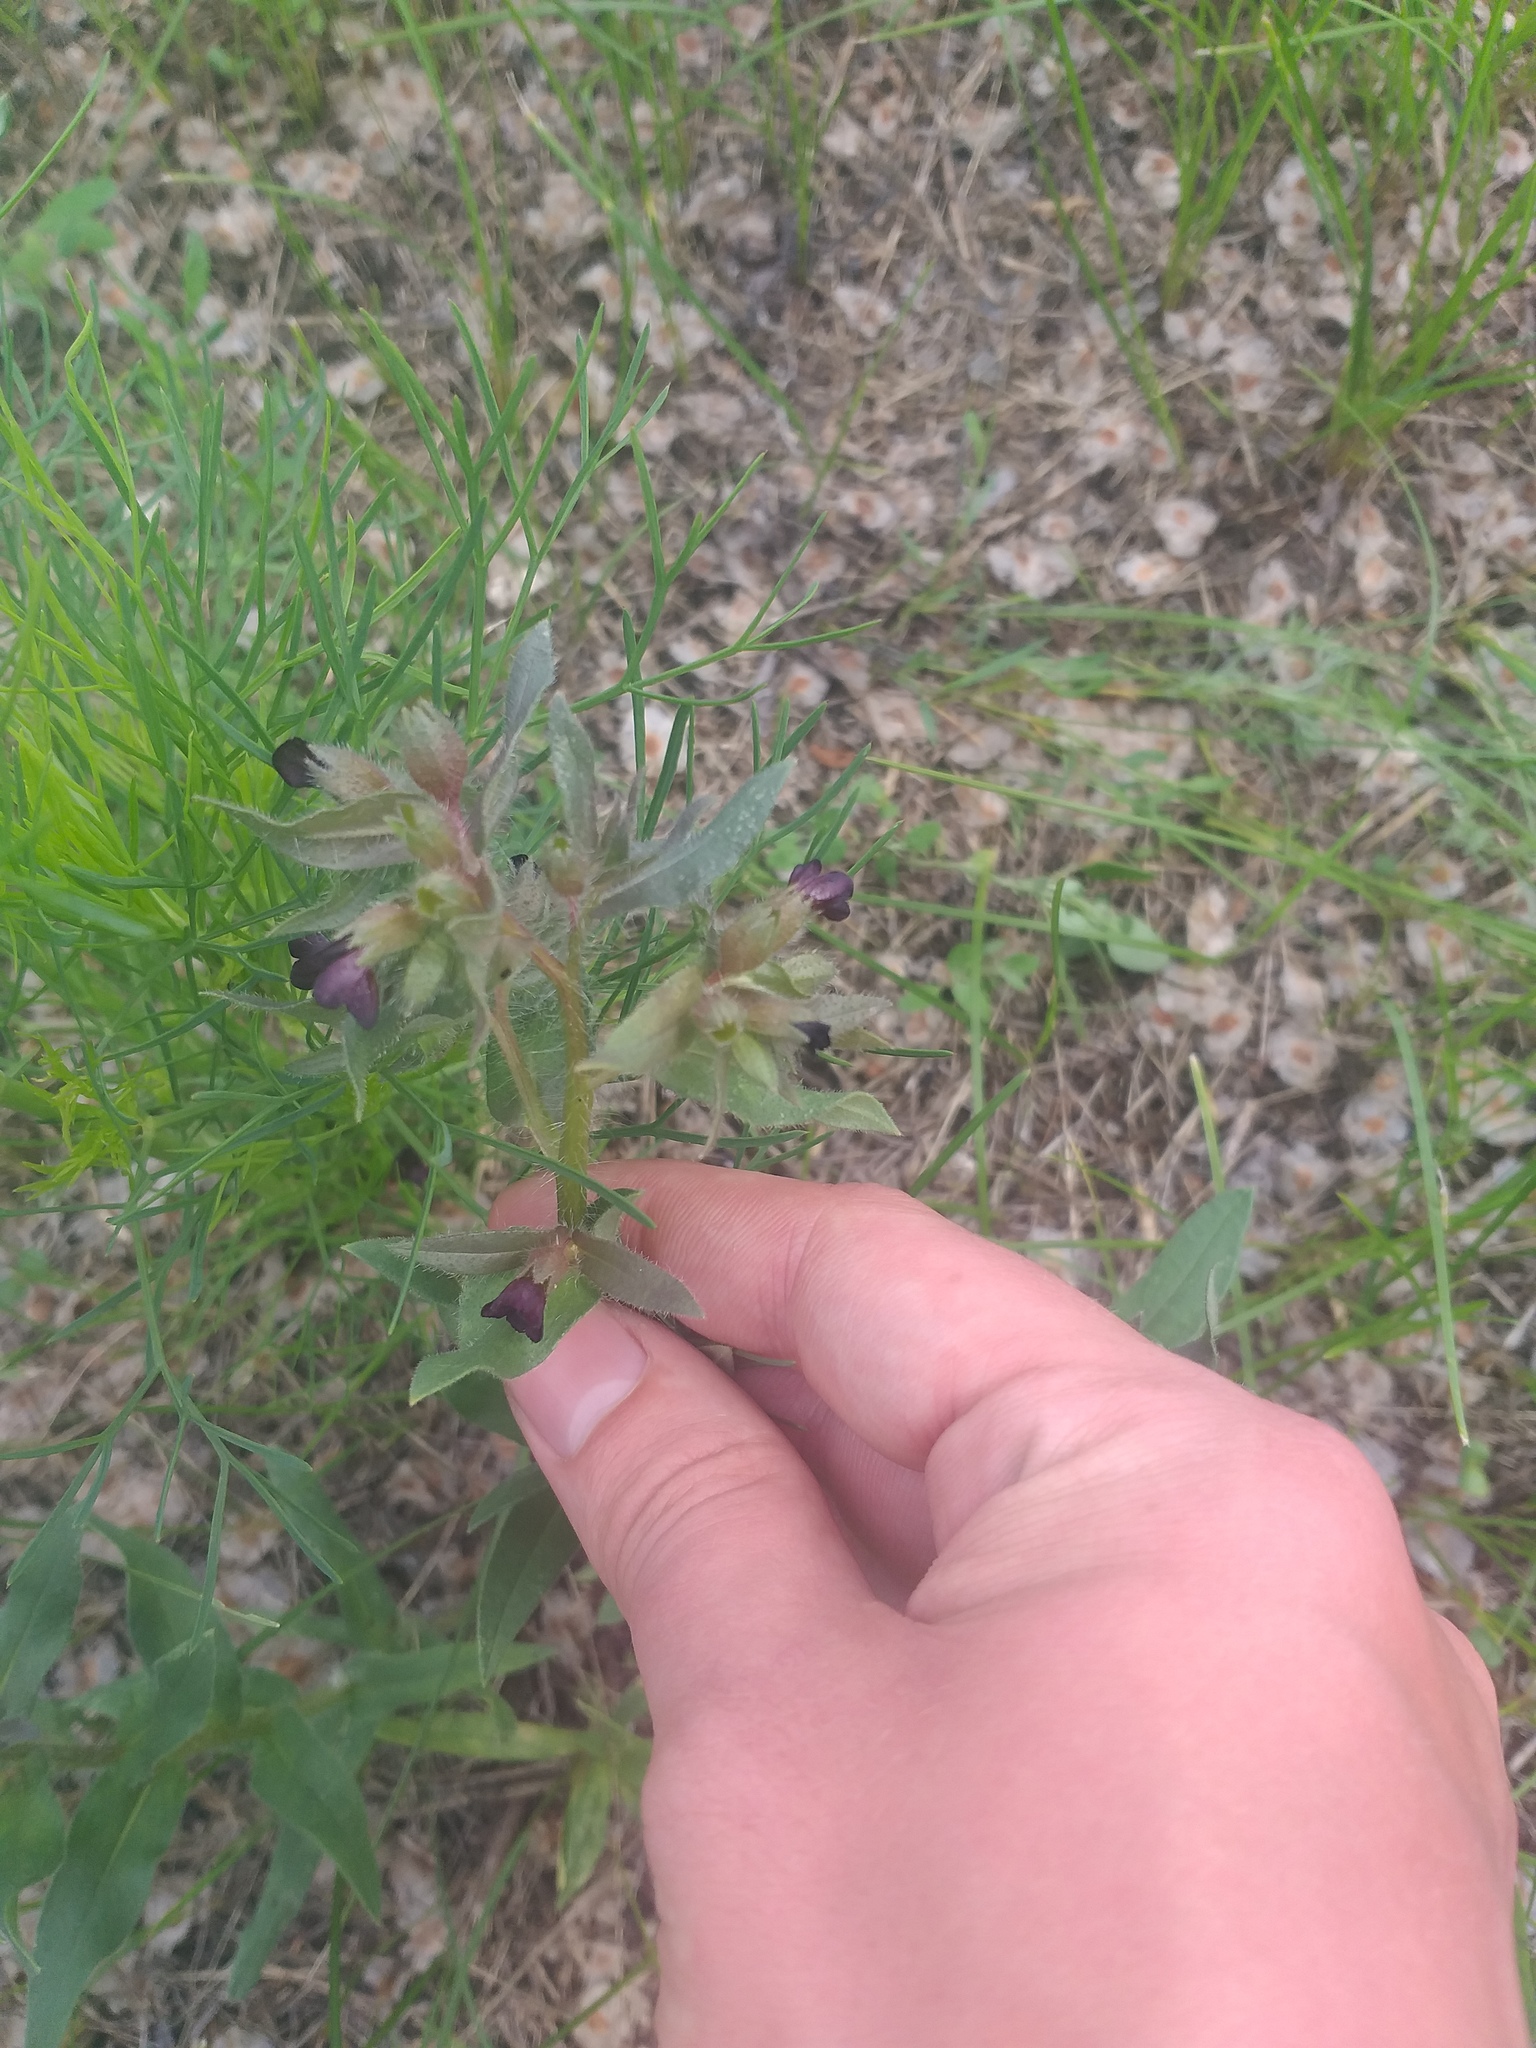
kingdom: Plantae
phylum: Tracheophyta
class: Magnoliopsida
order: Boraginales
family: Boraginaceae
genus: Nonea
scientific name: Nonea pulla
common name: Brown nonea
